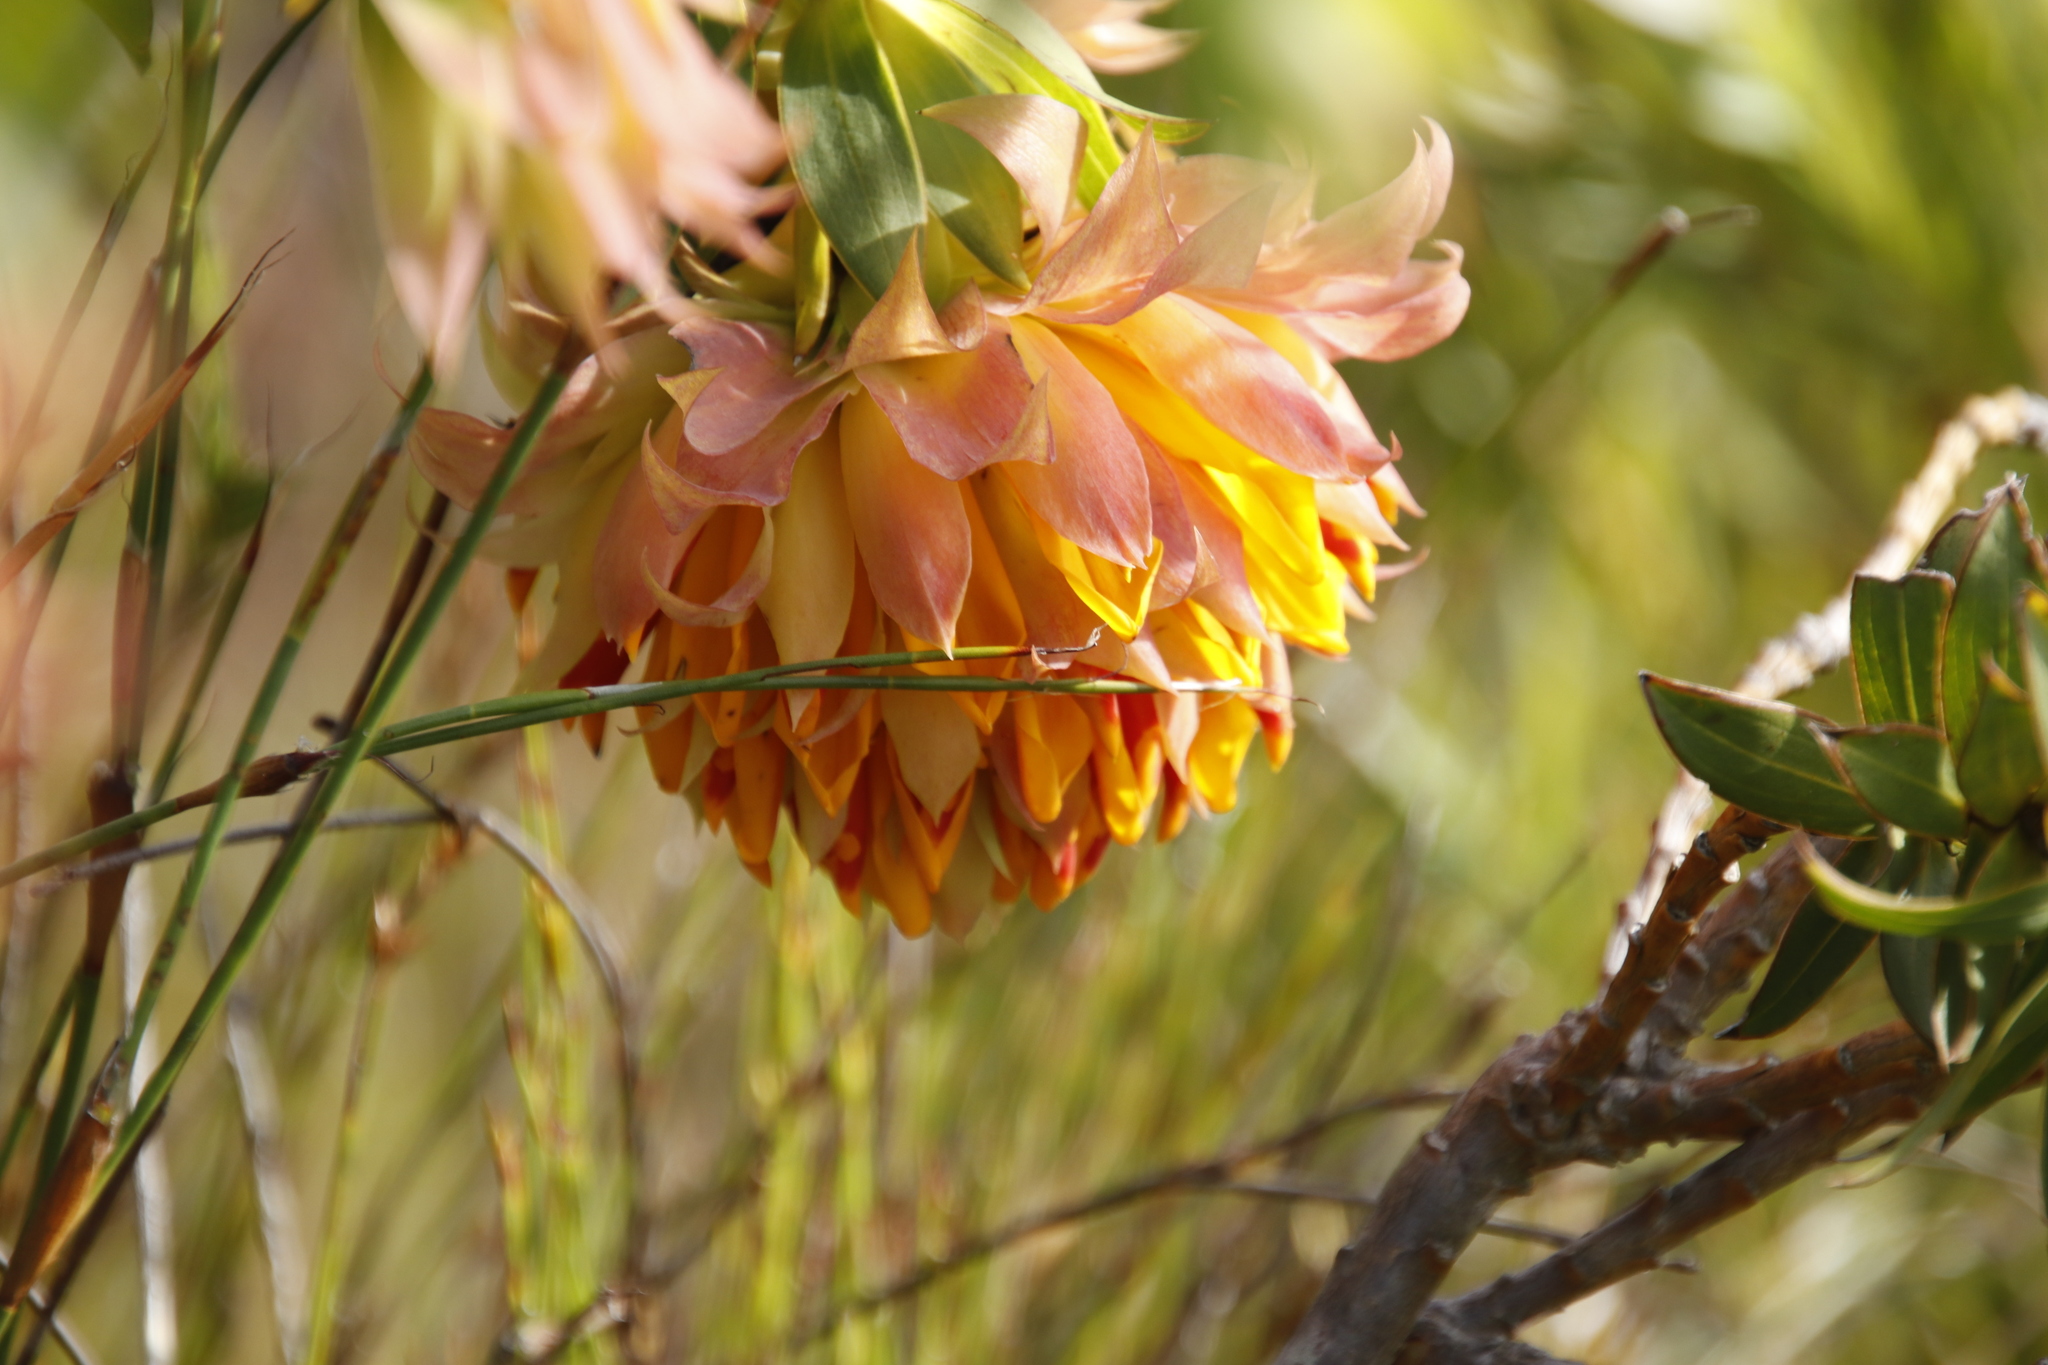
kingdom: Plantae
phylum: Tracheophyta
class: Magnoliopsida
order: Fabales
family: Fabaceae
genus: Liparia
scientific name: Liparia splendens
